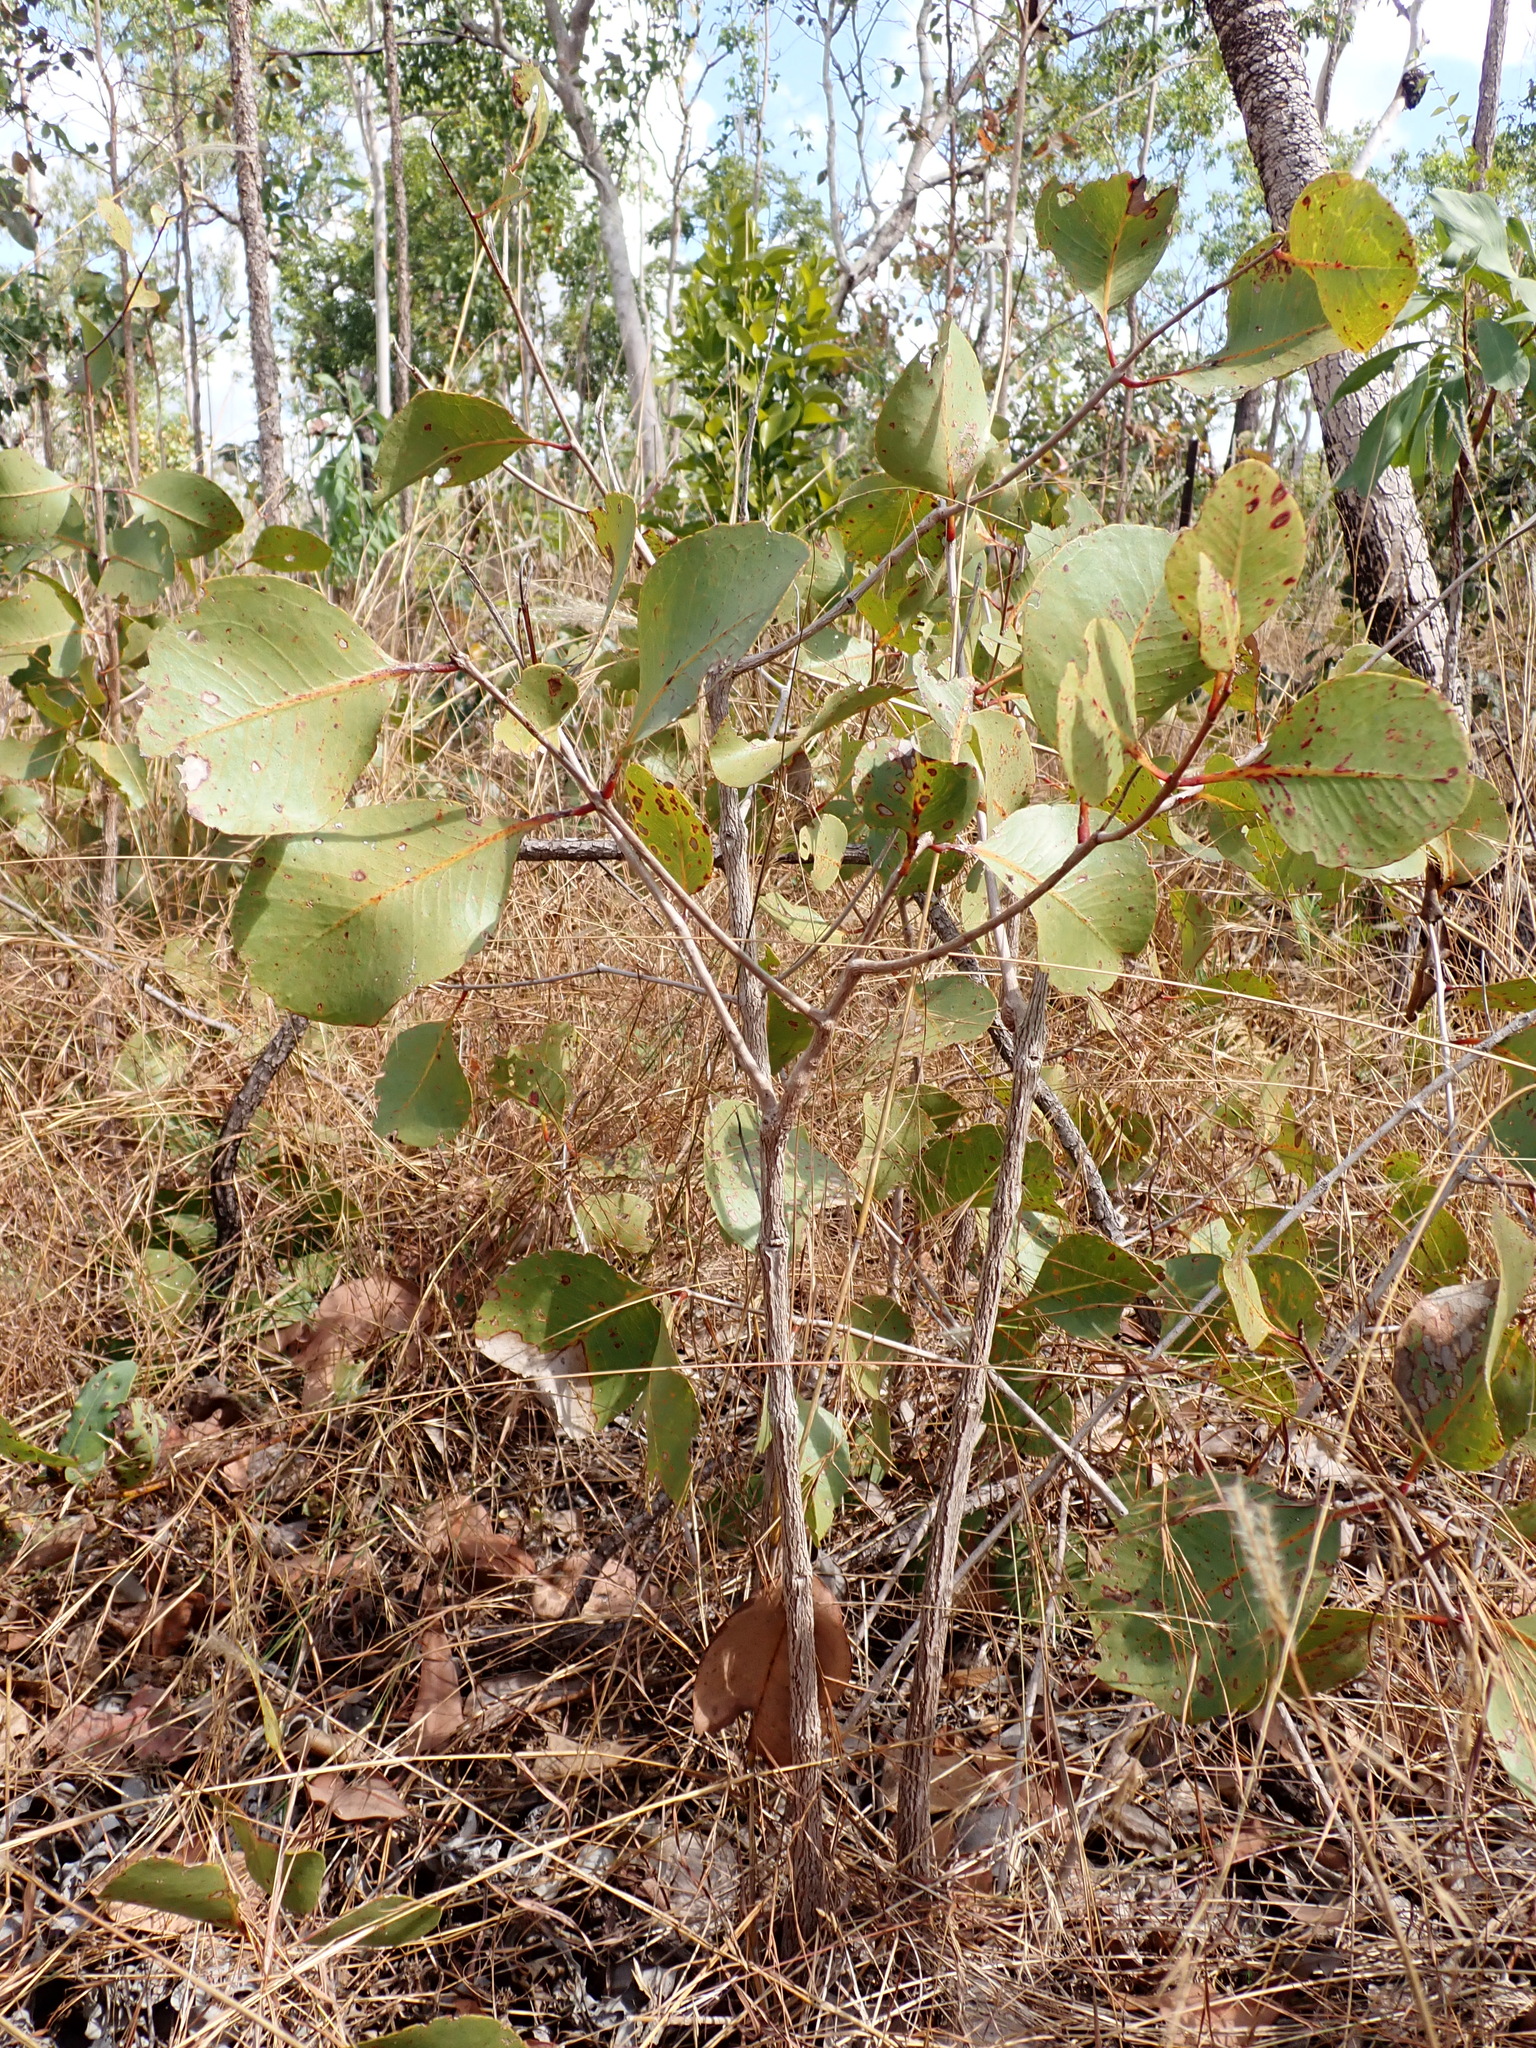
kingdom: Plantae
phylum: Tracheophyta
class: Magnoliopsida
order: Myrtales
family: Myrtaceae
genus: Syzygium
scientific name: Syzygium eucalyptoides
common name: Native apple
